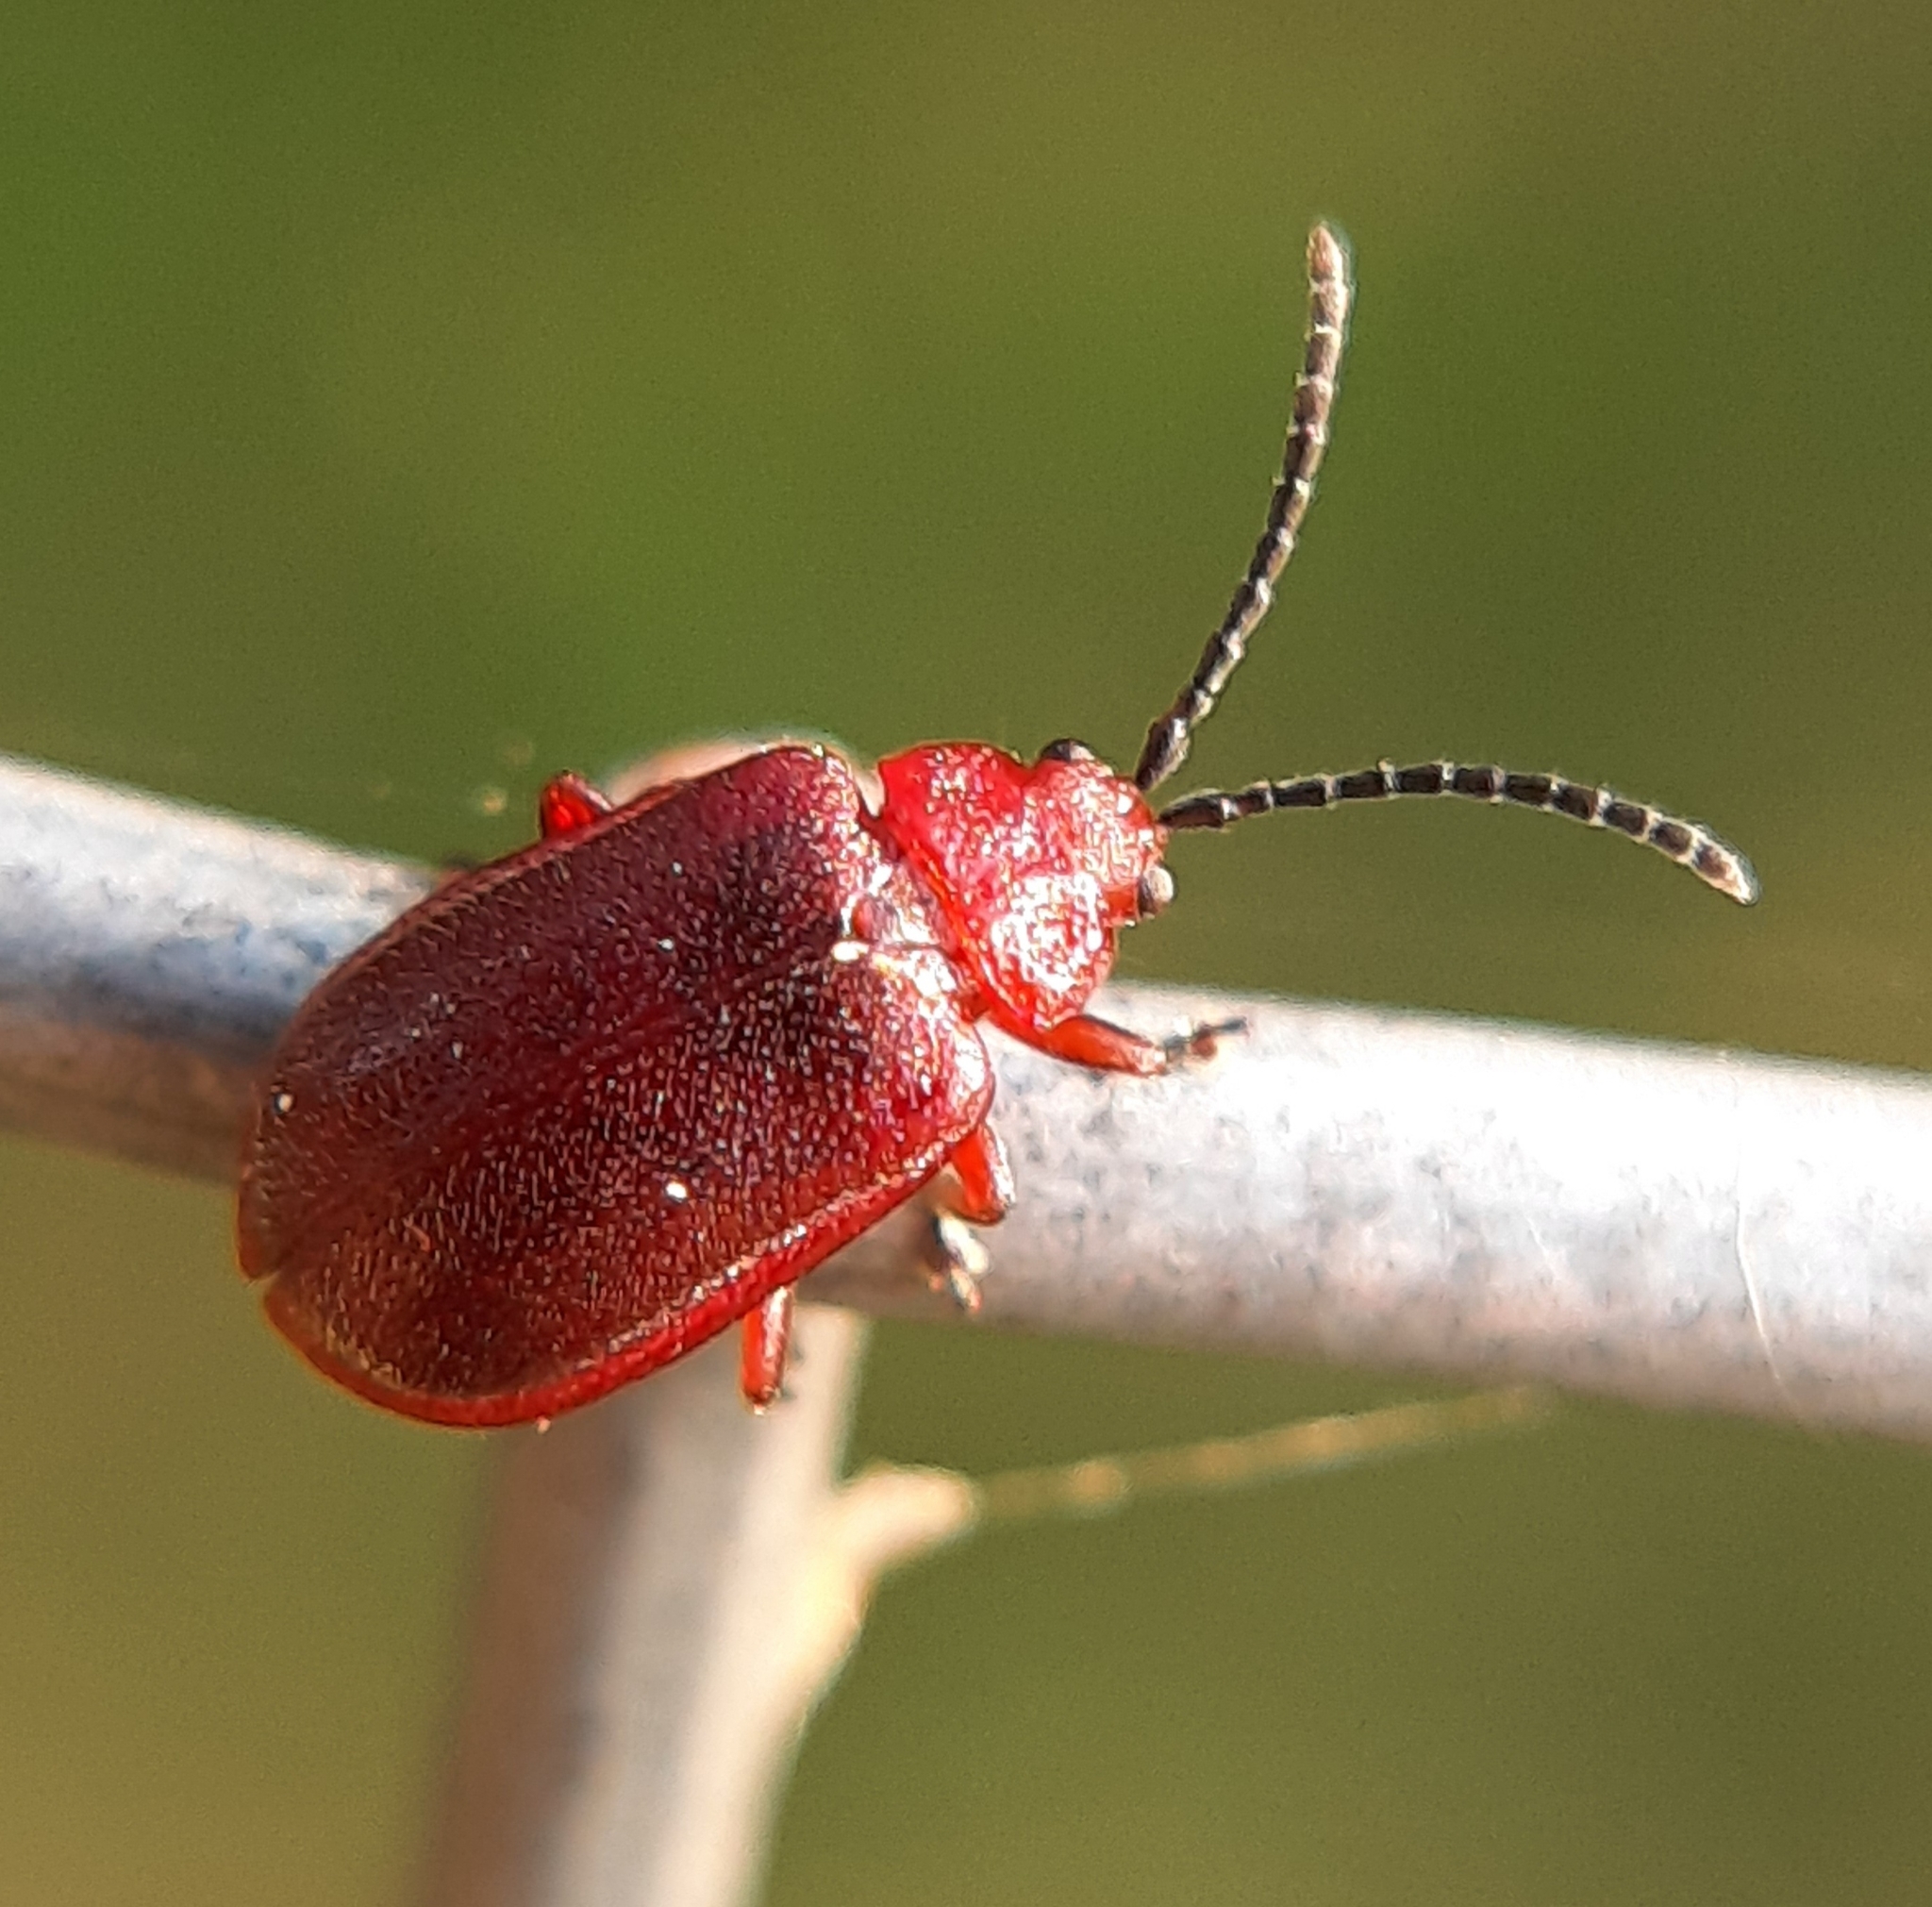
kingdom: Animalia
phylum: Arthropoda
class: Insecta
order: Coleoptera
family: Chrysomelidae
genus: Tricholochmaea
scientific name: Tricholochmaea cavicollis
